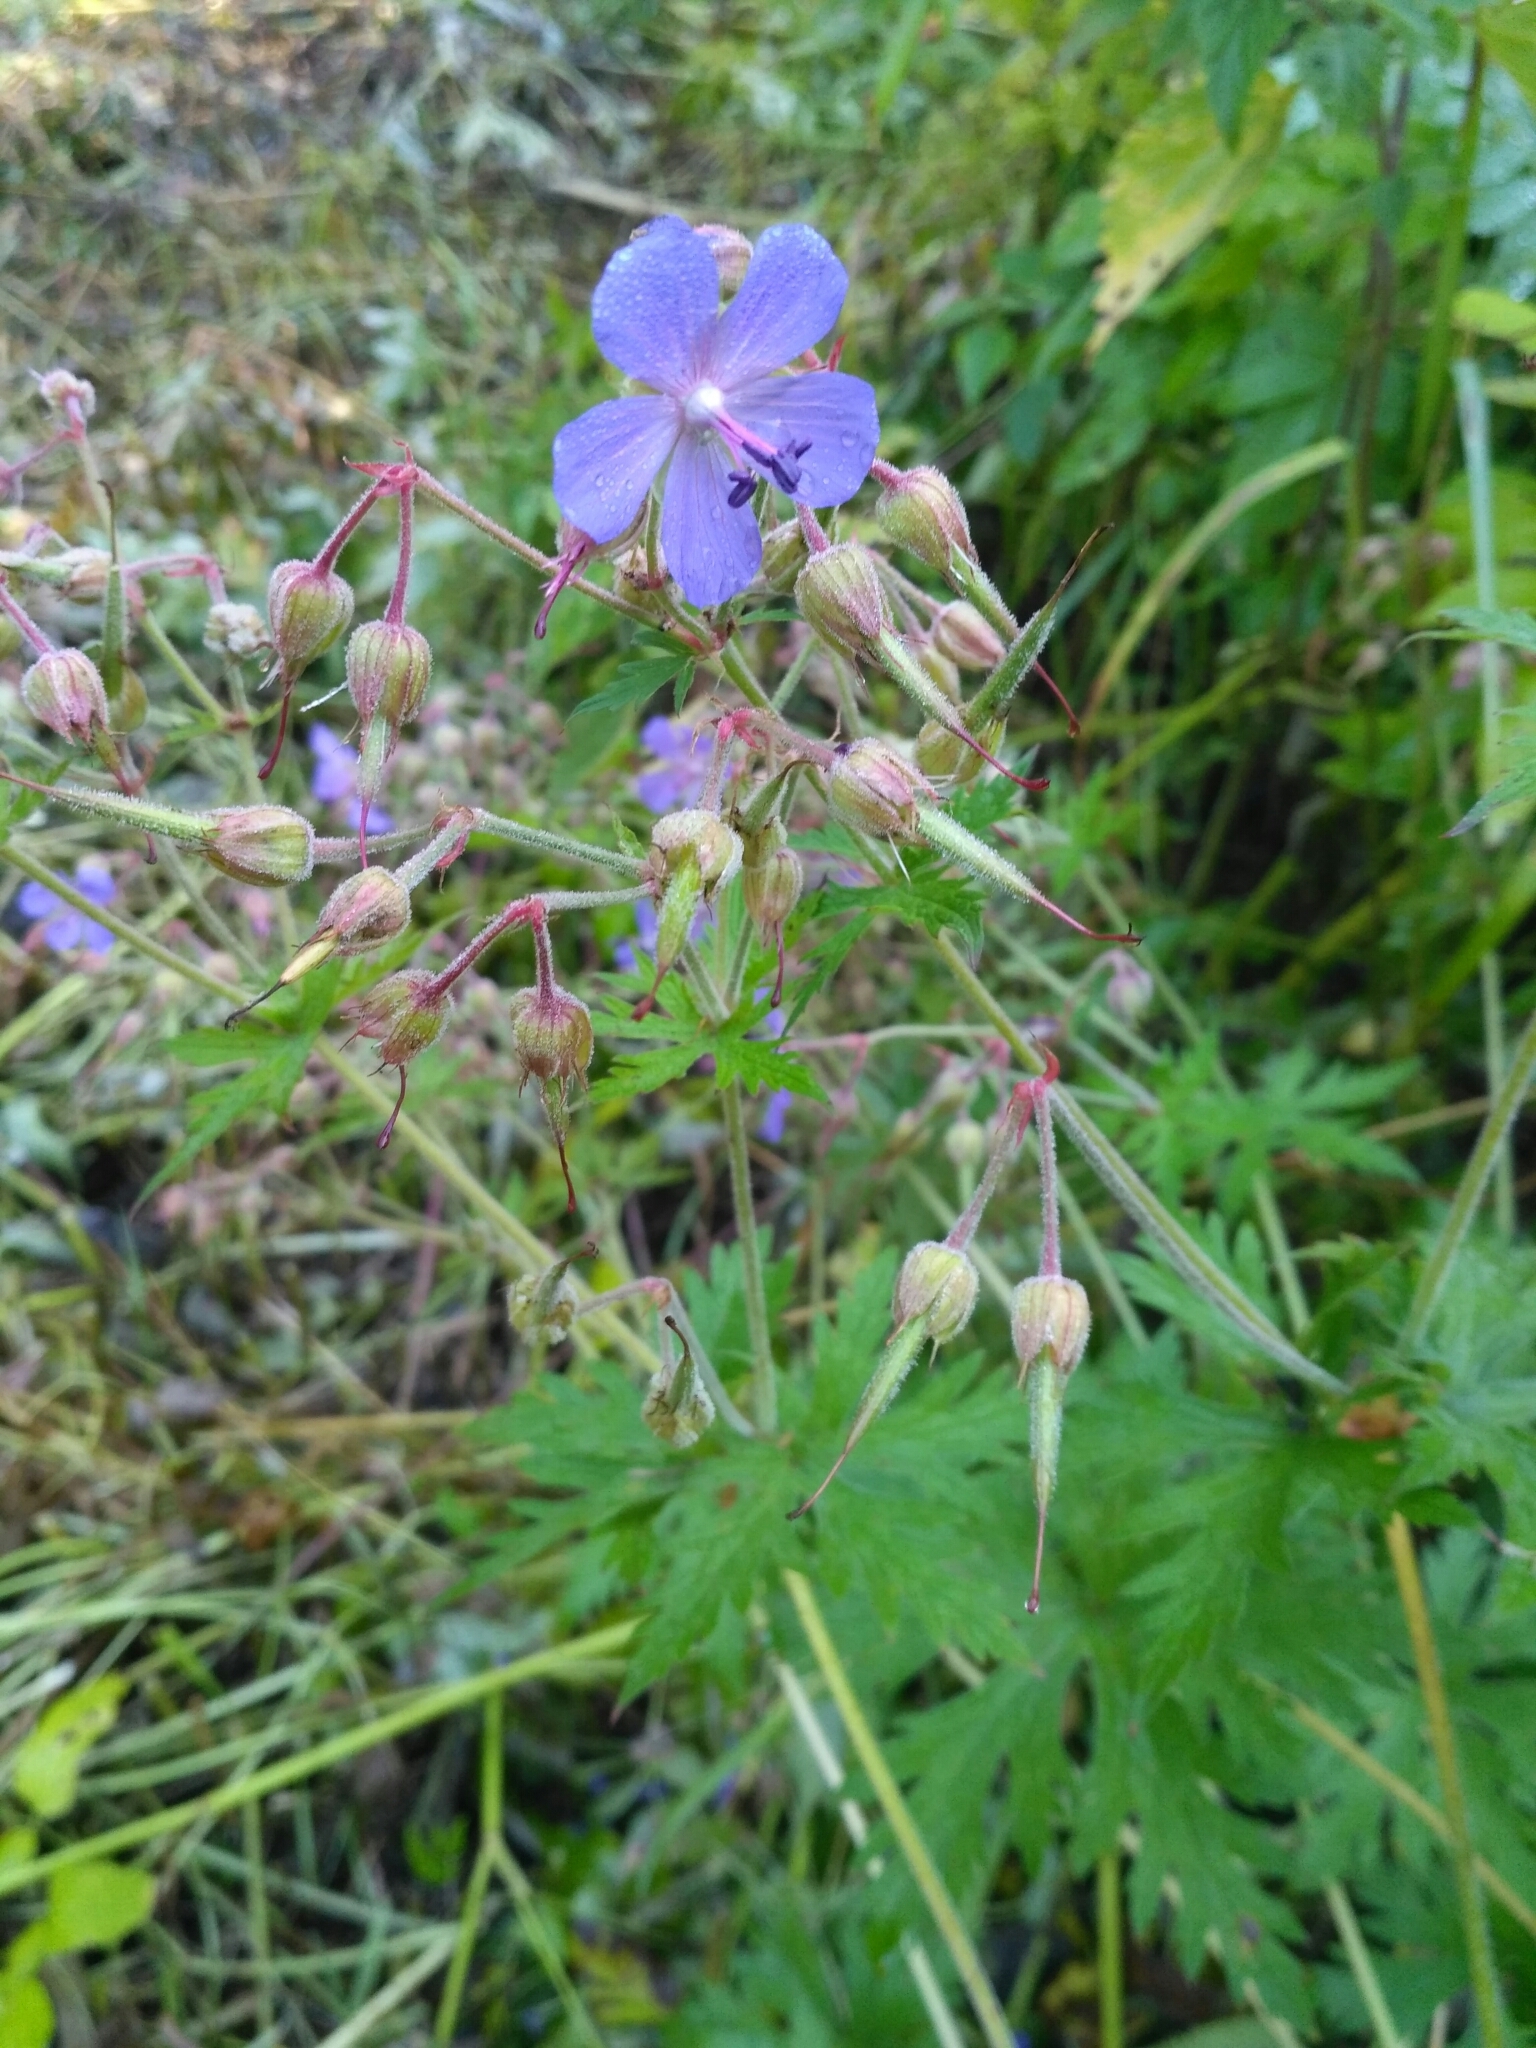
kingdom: Plantae
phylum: Tracheophyta
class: Magnoliopsida
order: Geraniales
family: Geraniaceae
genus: Geranium
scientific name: Geranium pratense
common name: Meadow crane's-bill
